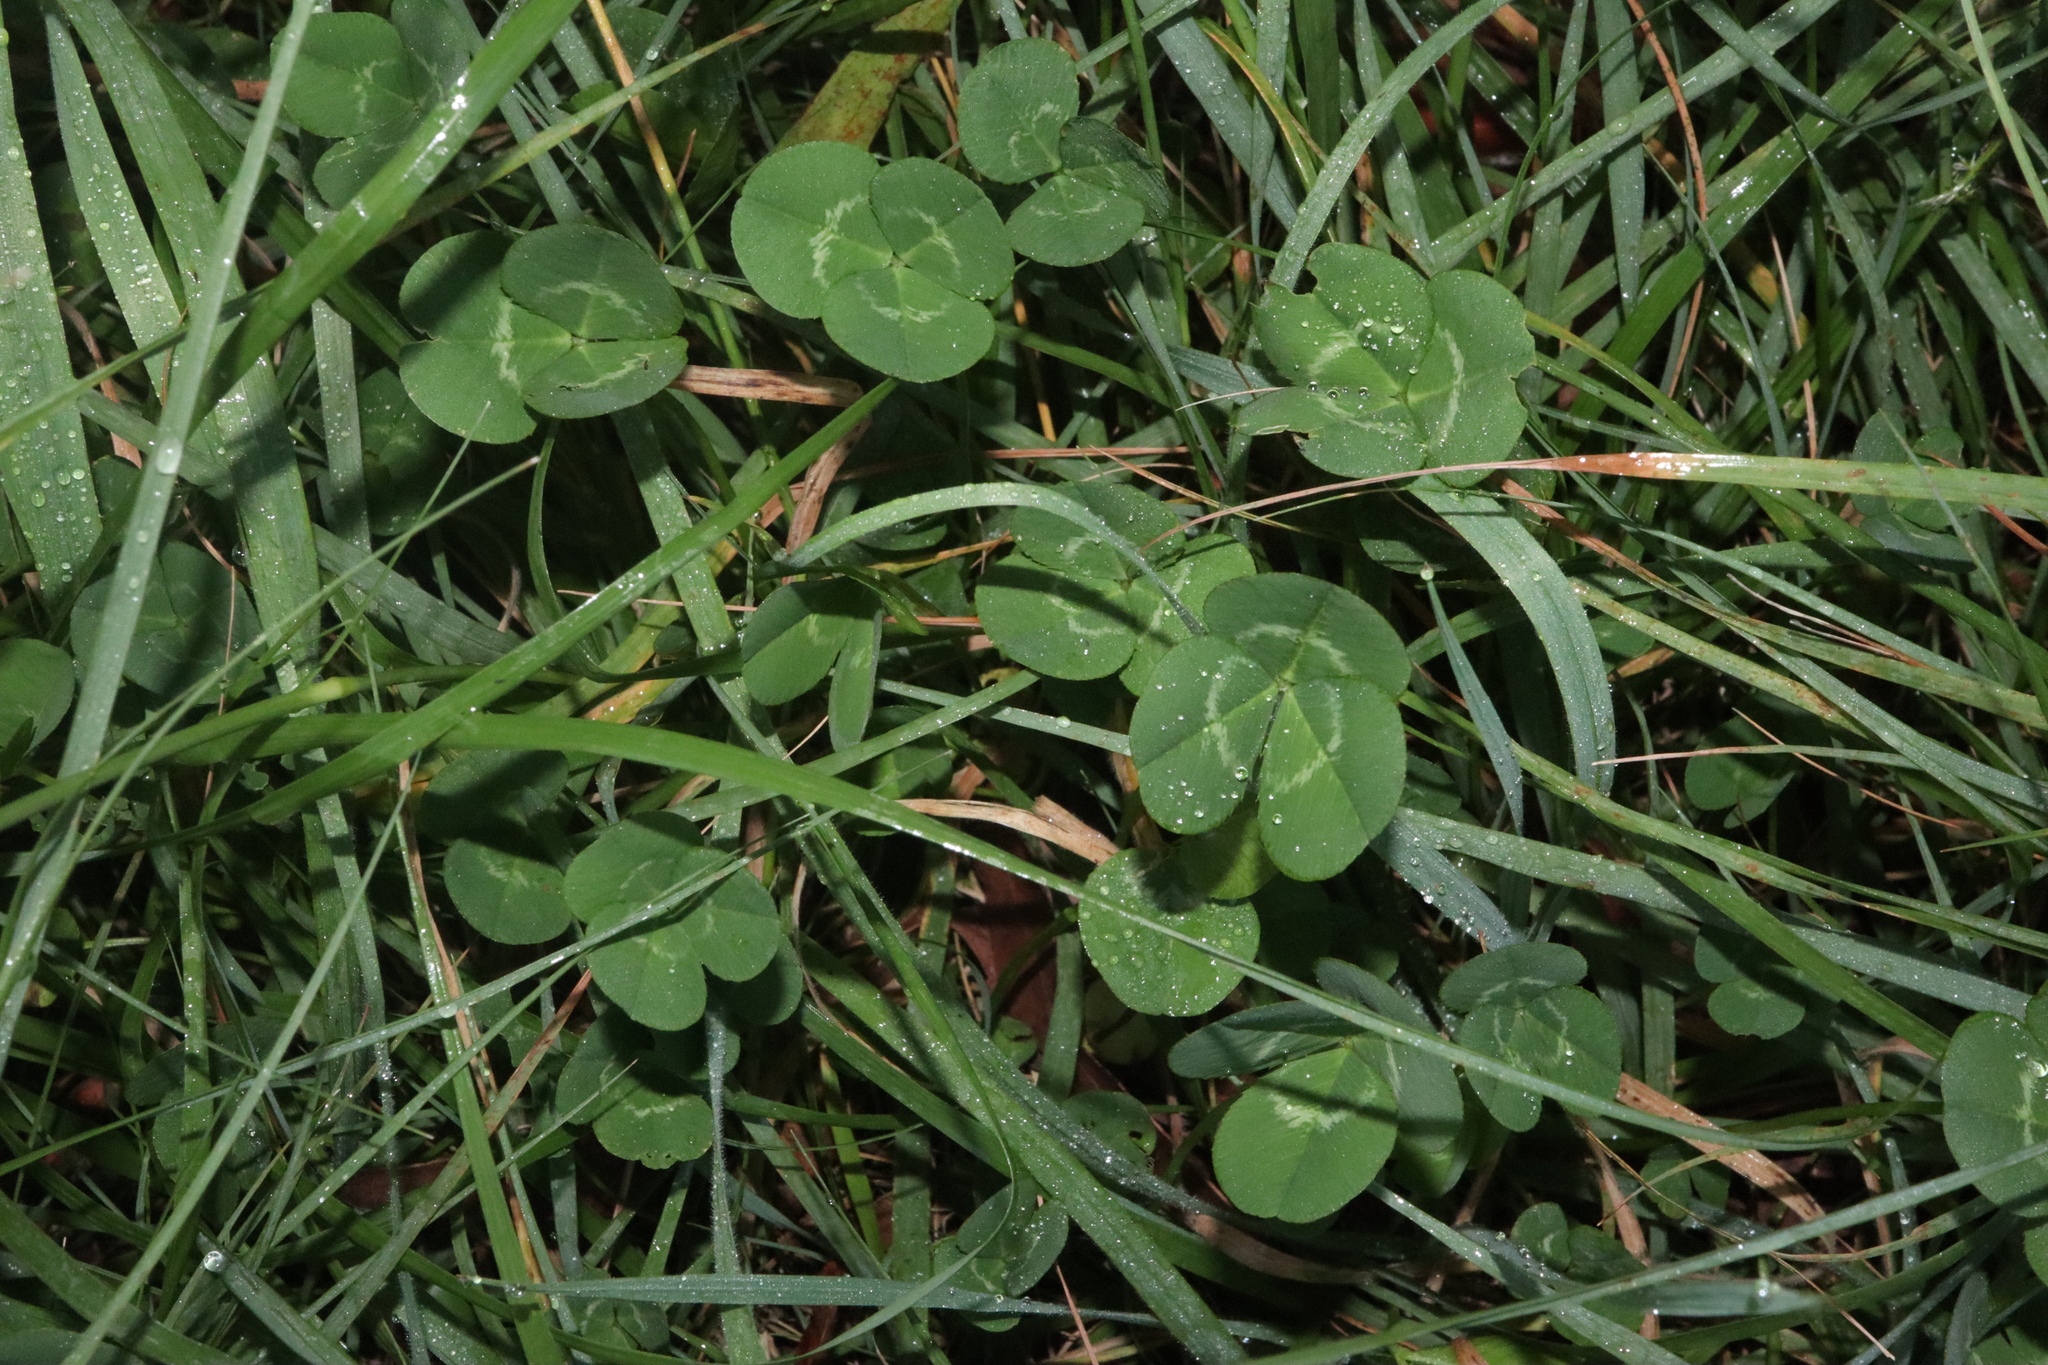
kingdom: Plantae
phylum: Tracheophyta
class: Magnoliopsida
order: Fabales
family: Fabaceae
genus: Trifolium
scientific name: Trifolium repens
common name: White clover
